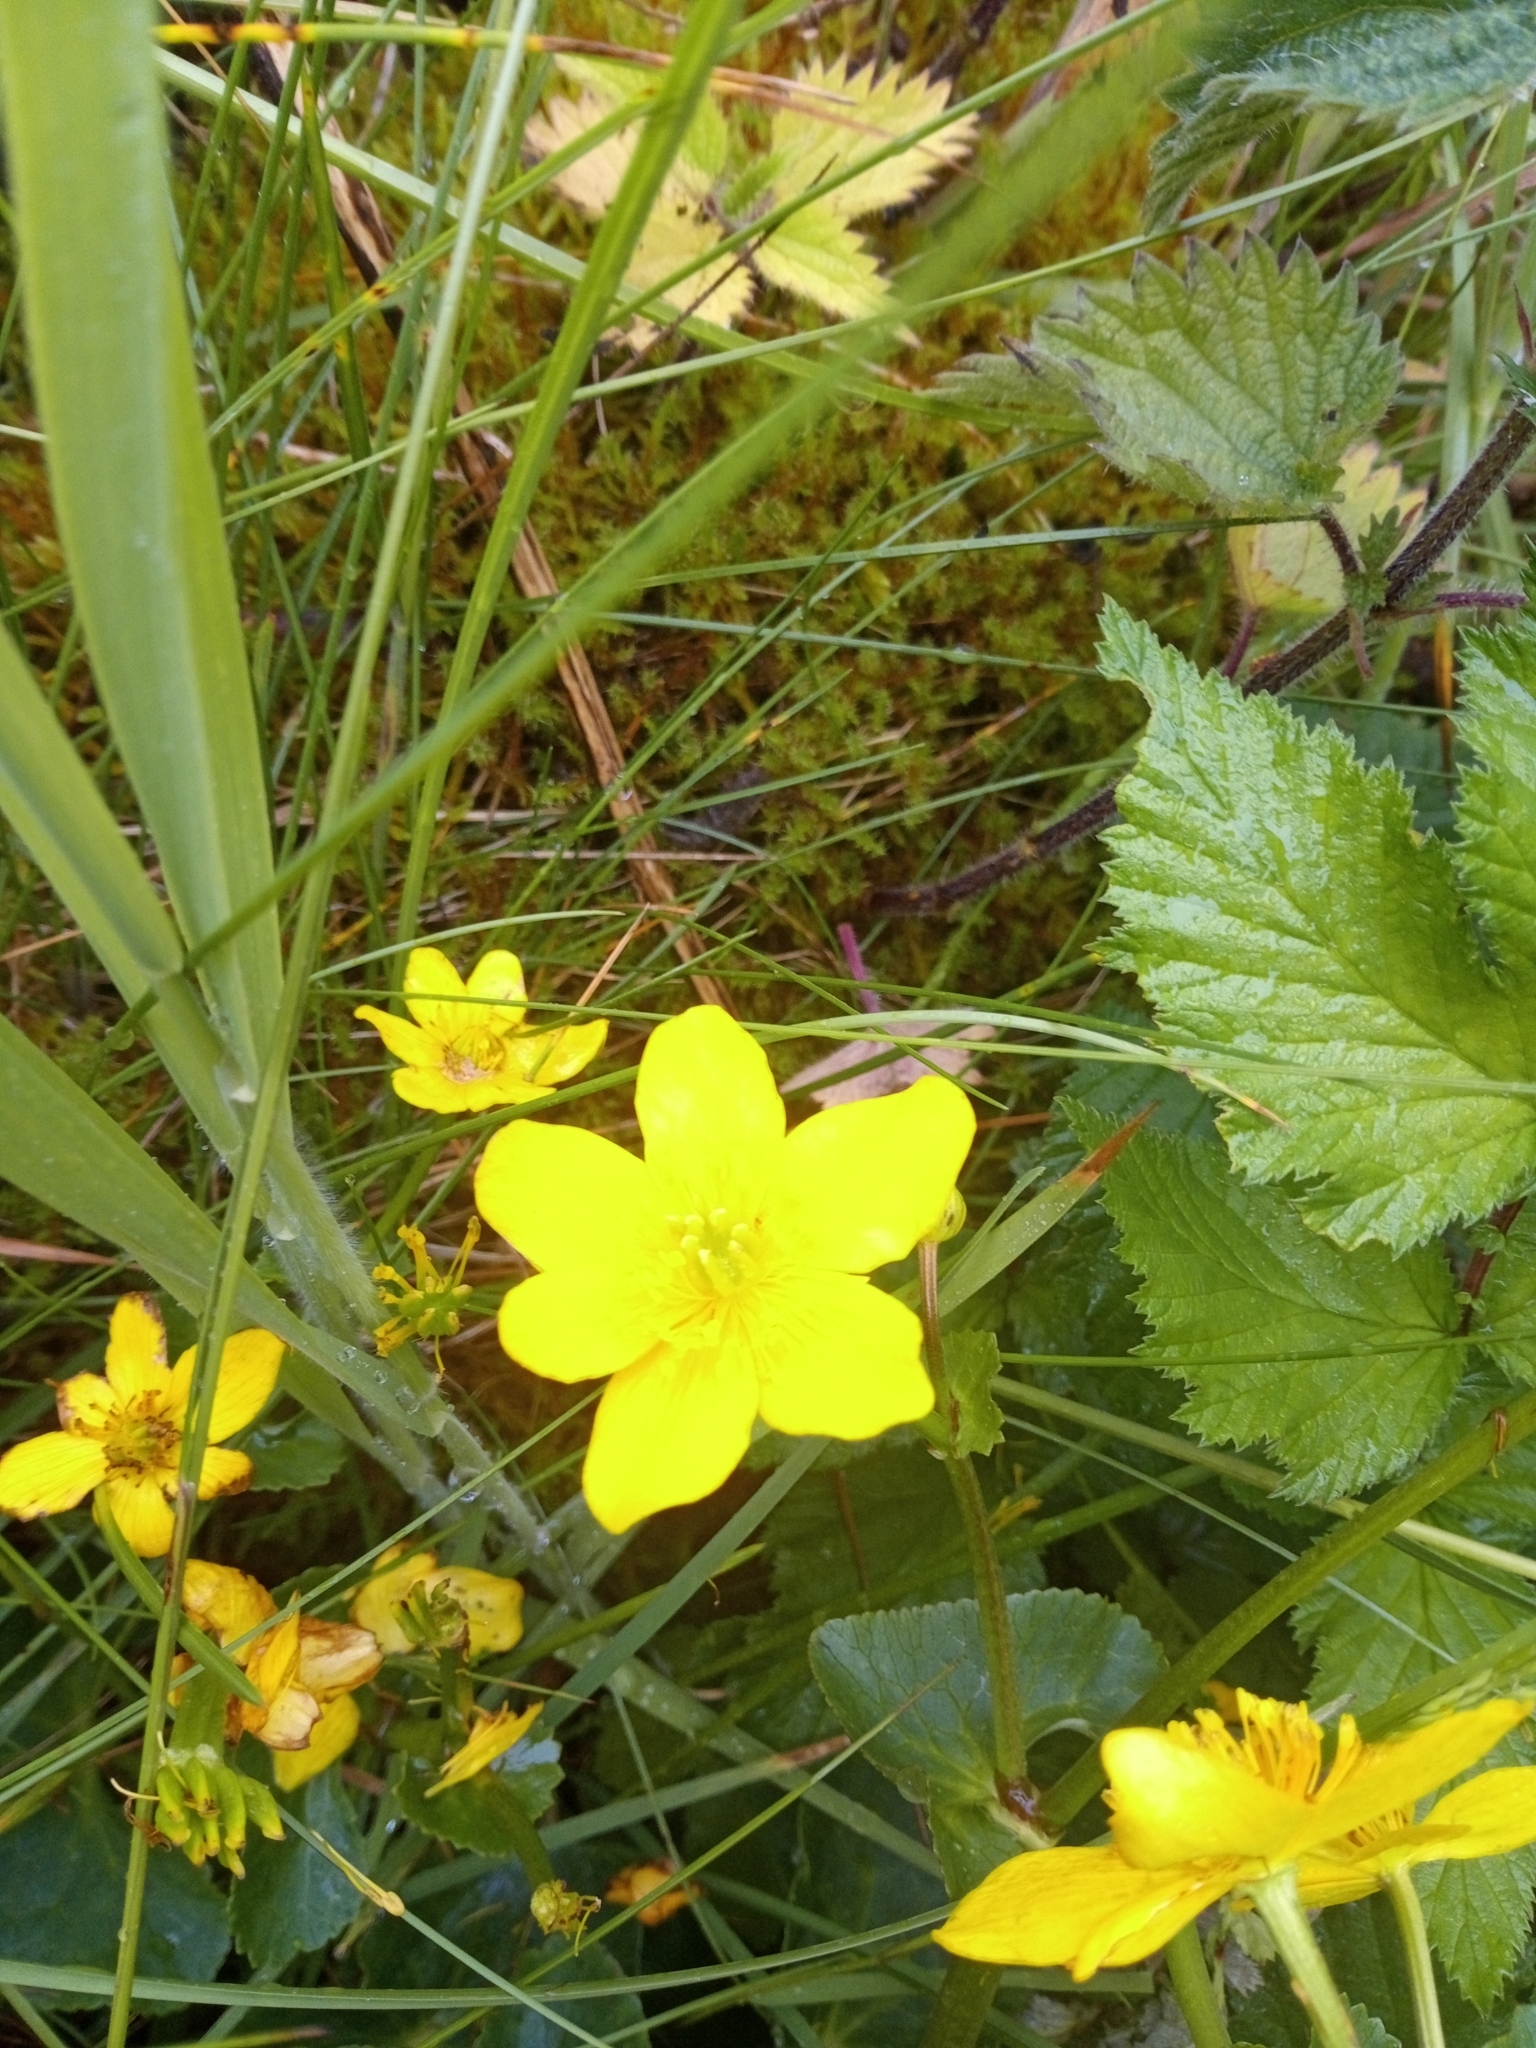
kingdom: Plantae
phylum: Tracheophyta
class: Magnoliopsida
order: Ranunculales
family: Ranunculaceae
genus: Caltha
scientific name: Caltha palustris
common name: Marsh marigold
